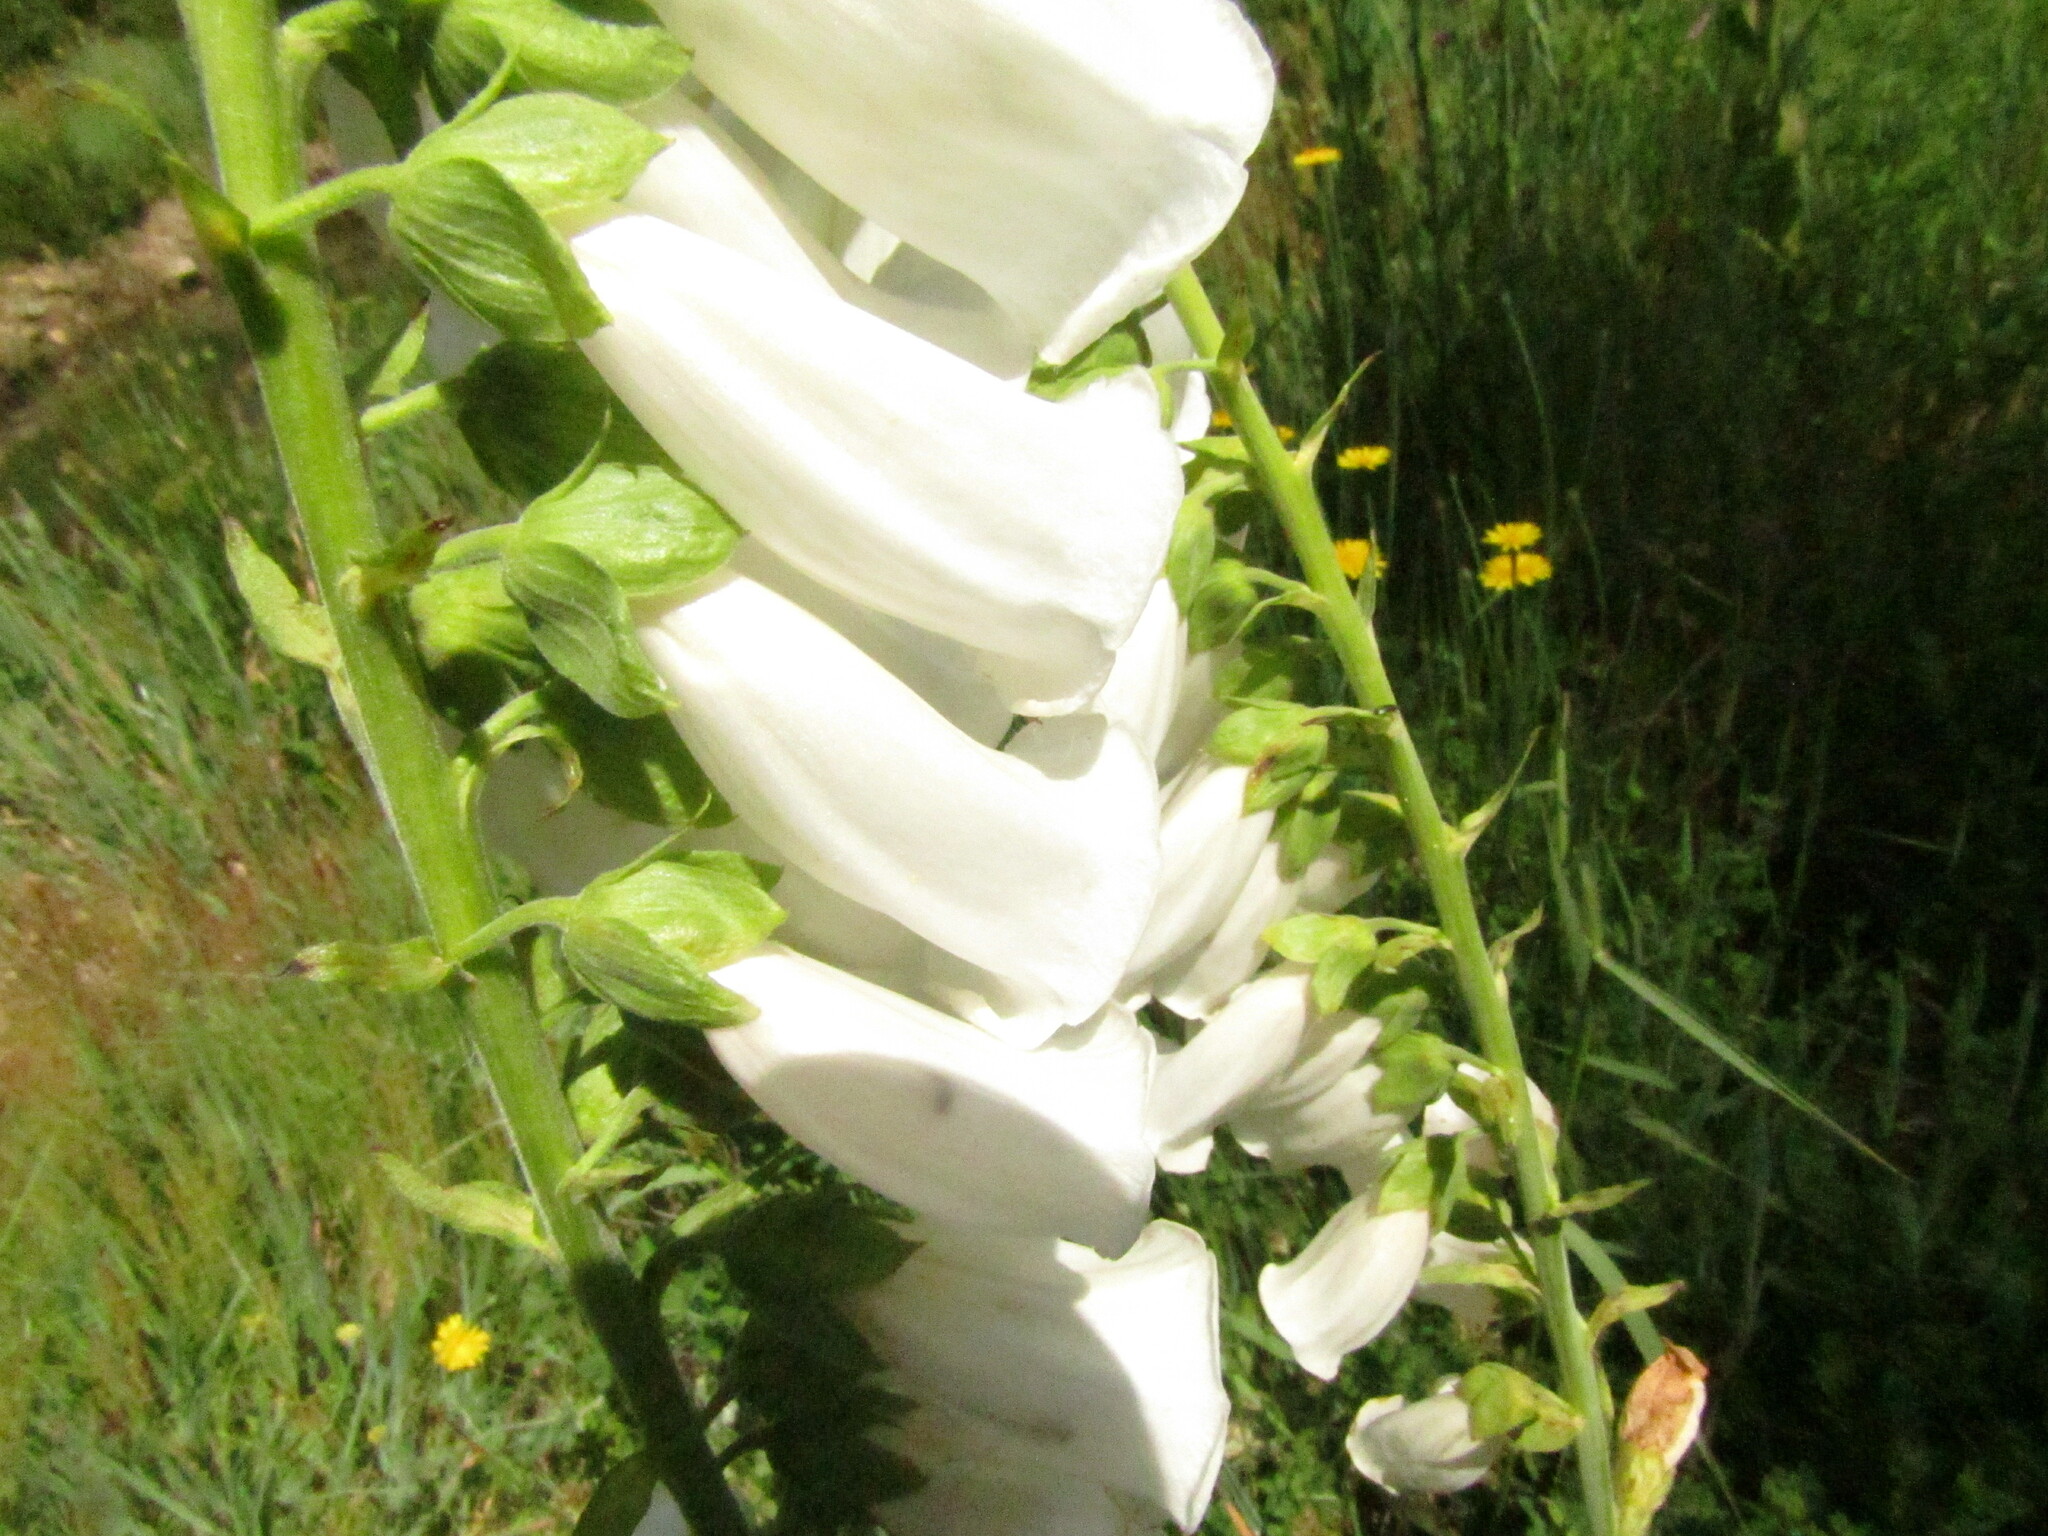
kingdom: Plantae
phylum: Tracheophyta
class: Magnoliopsida
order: Lamiales
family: Plantaginaceae
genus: Digitalis
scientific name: Digitalis purpurea
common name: Foxglove
